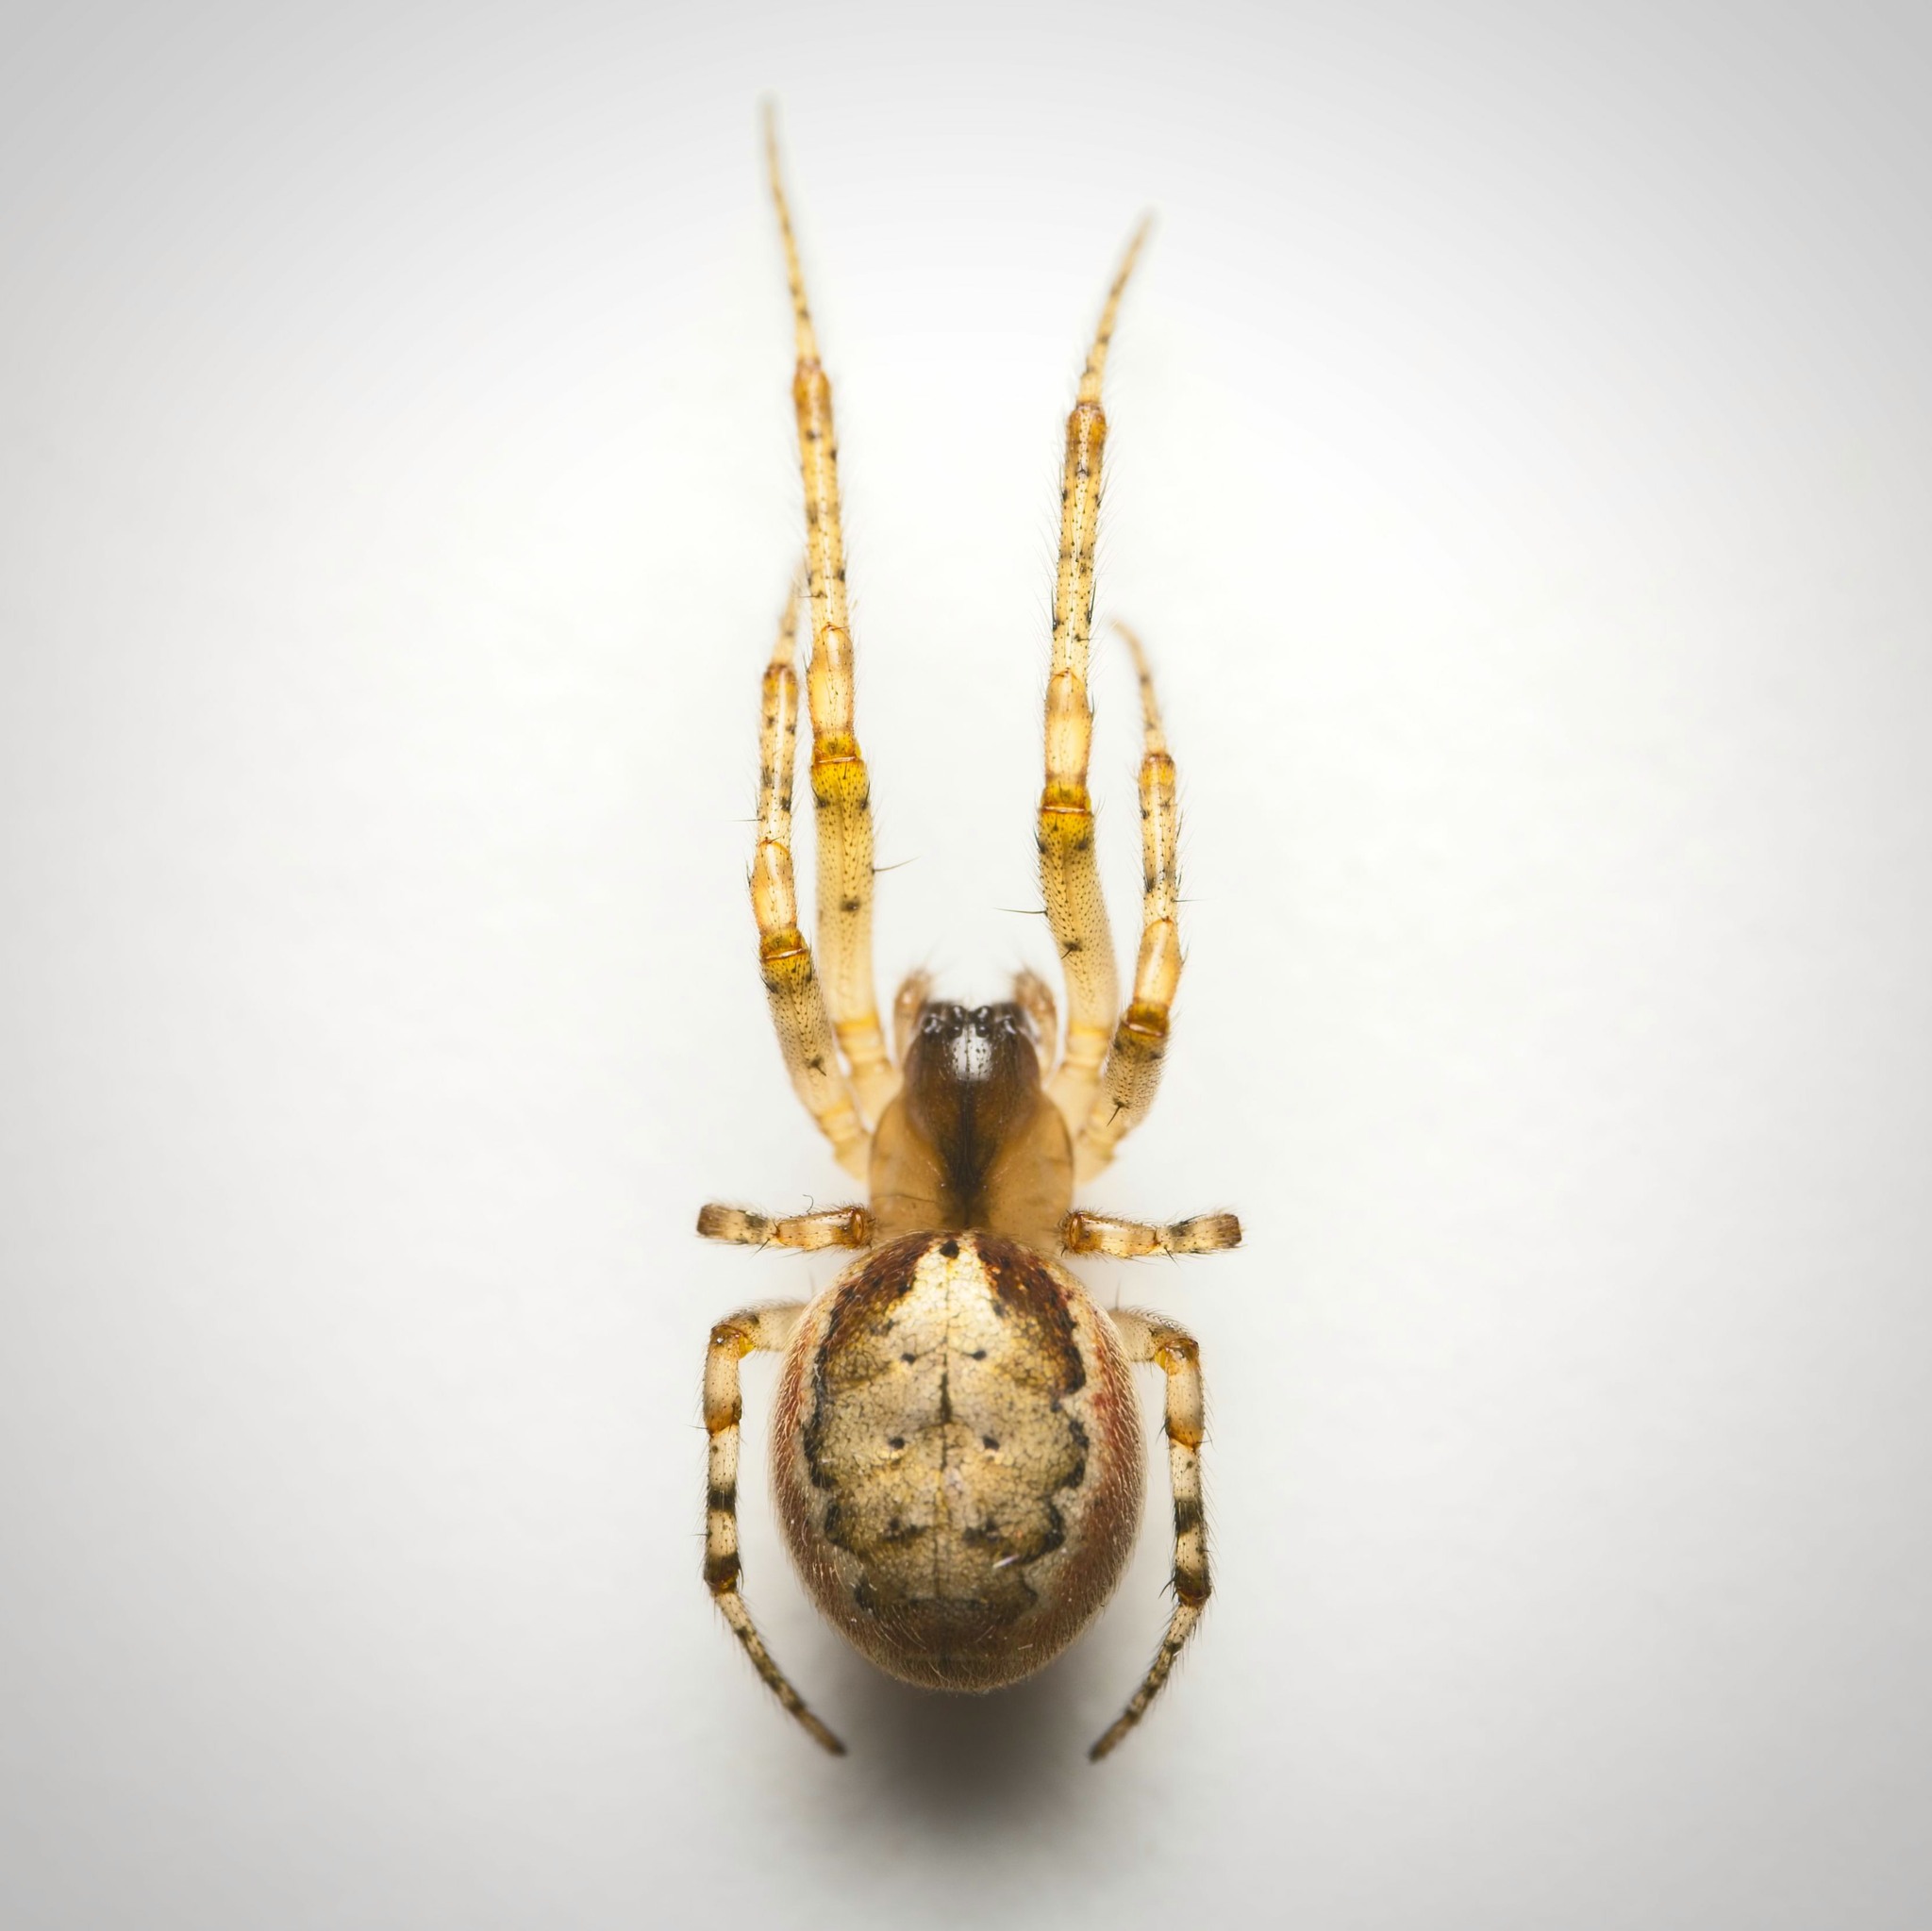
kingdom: Animalia
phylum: Arthropoda
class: Arachnida
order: Araneae
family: Araneidae
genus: Zygiella
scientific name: Zygiella x-notata
